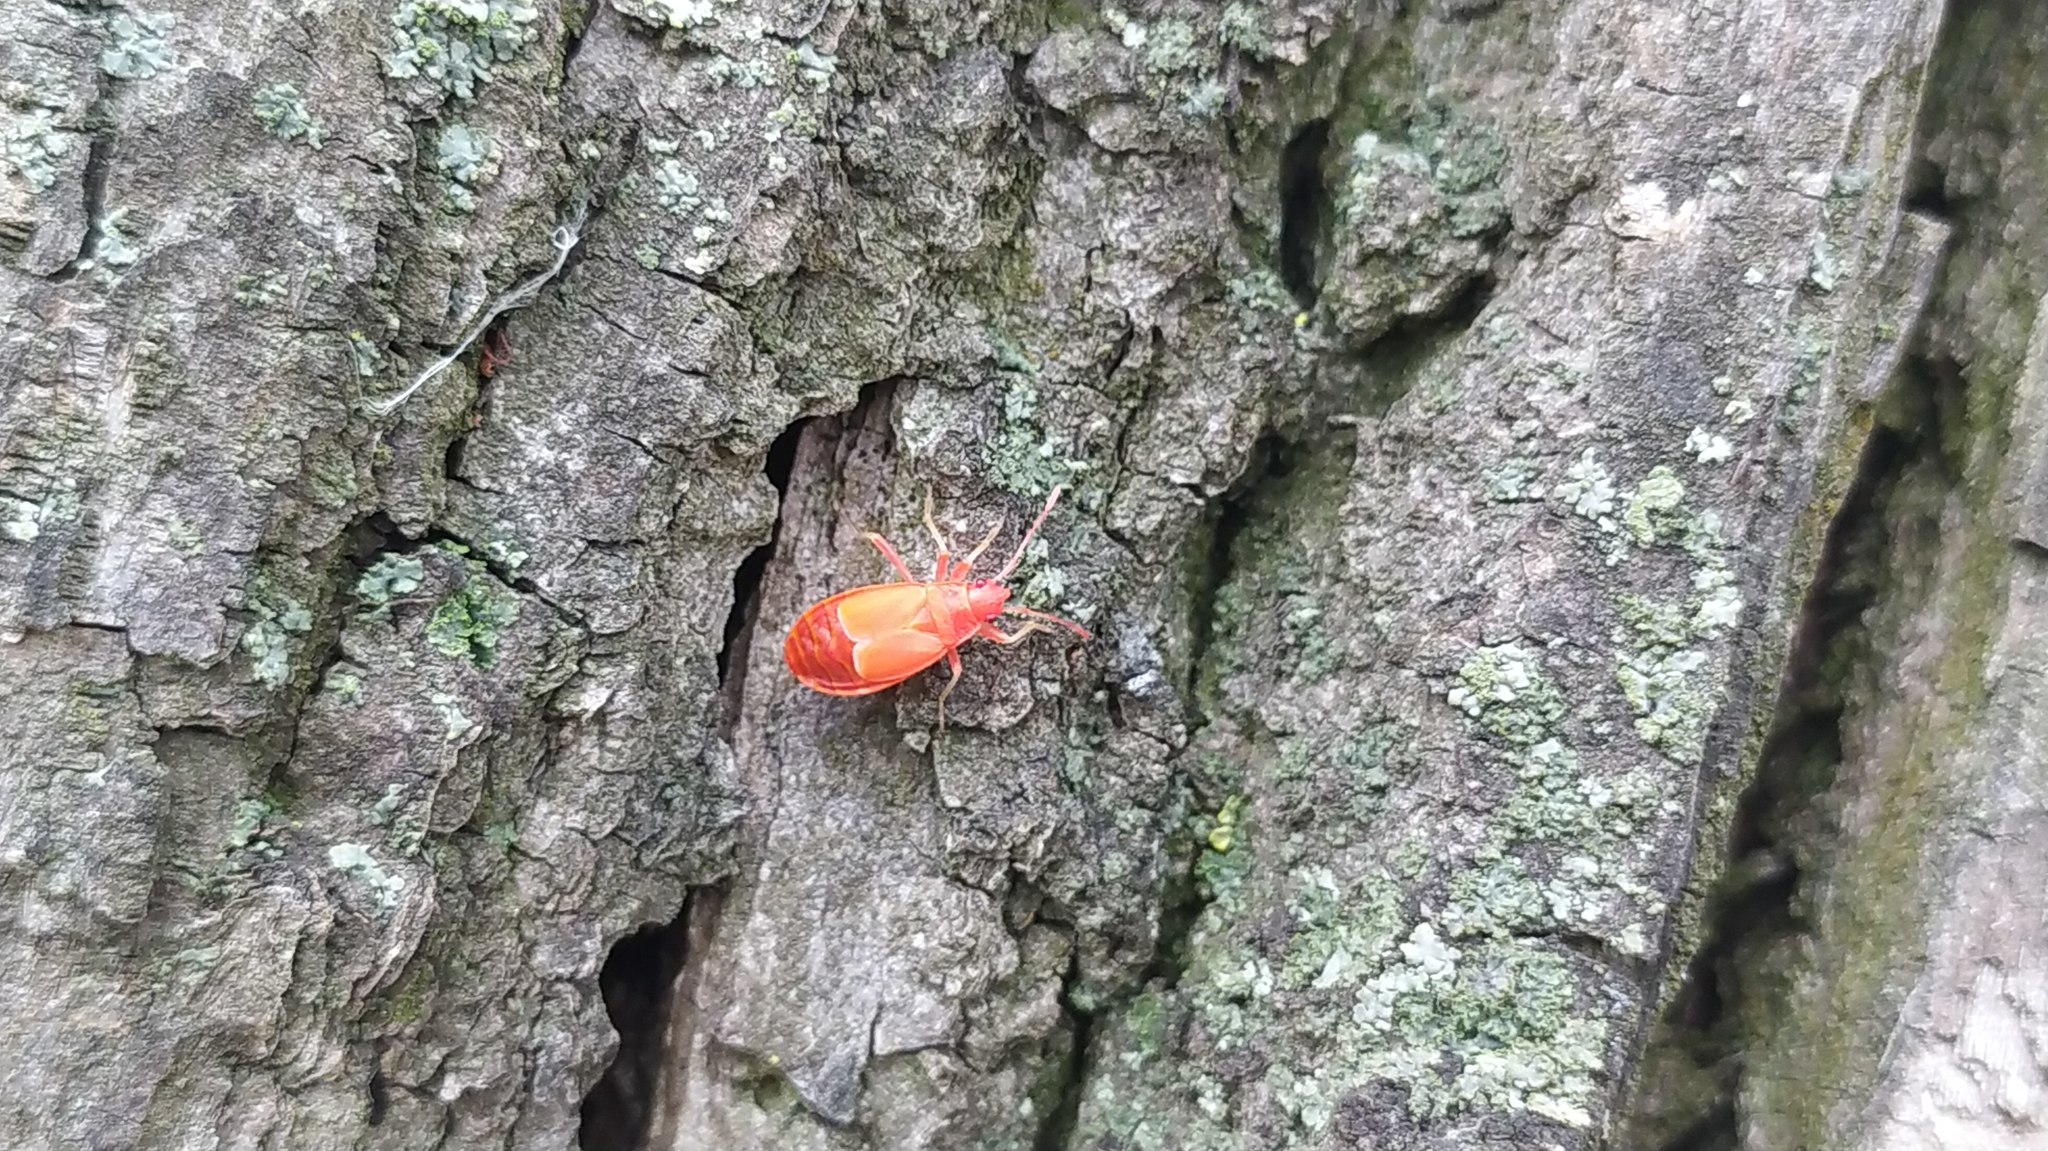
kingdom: Animalia
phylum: Arthropoda
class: Insecta
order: Hemiptera
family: Pyrrhocoridae
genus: Pyrrhocoris
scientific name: Pyrrhocoris apterus
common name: Firebug
